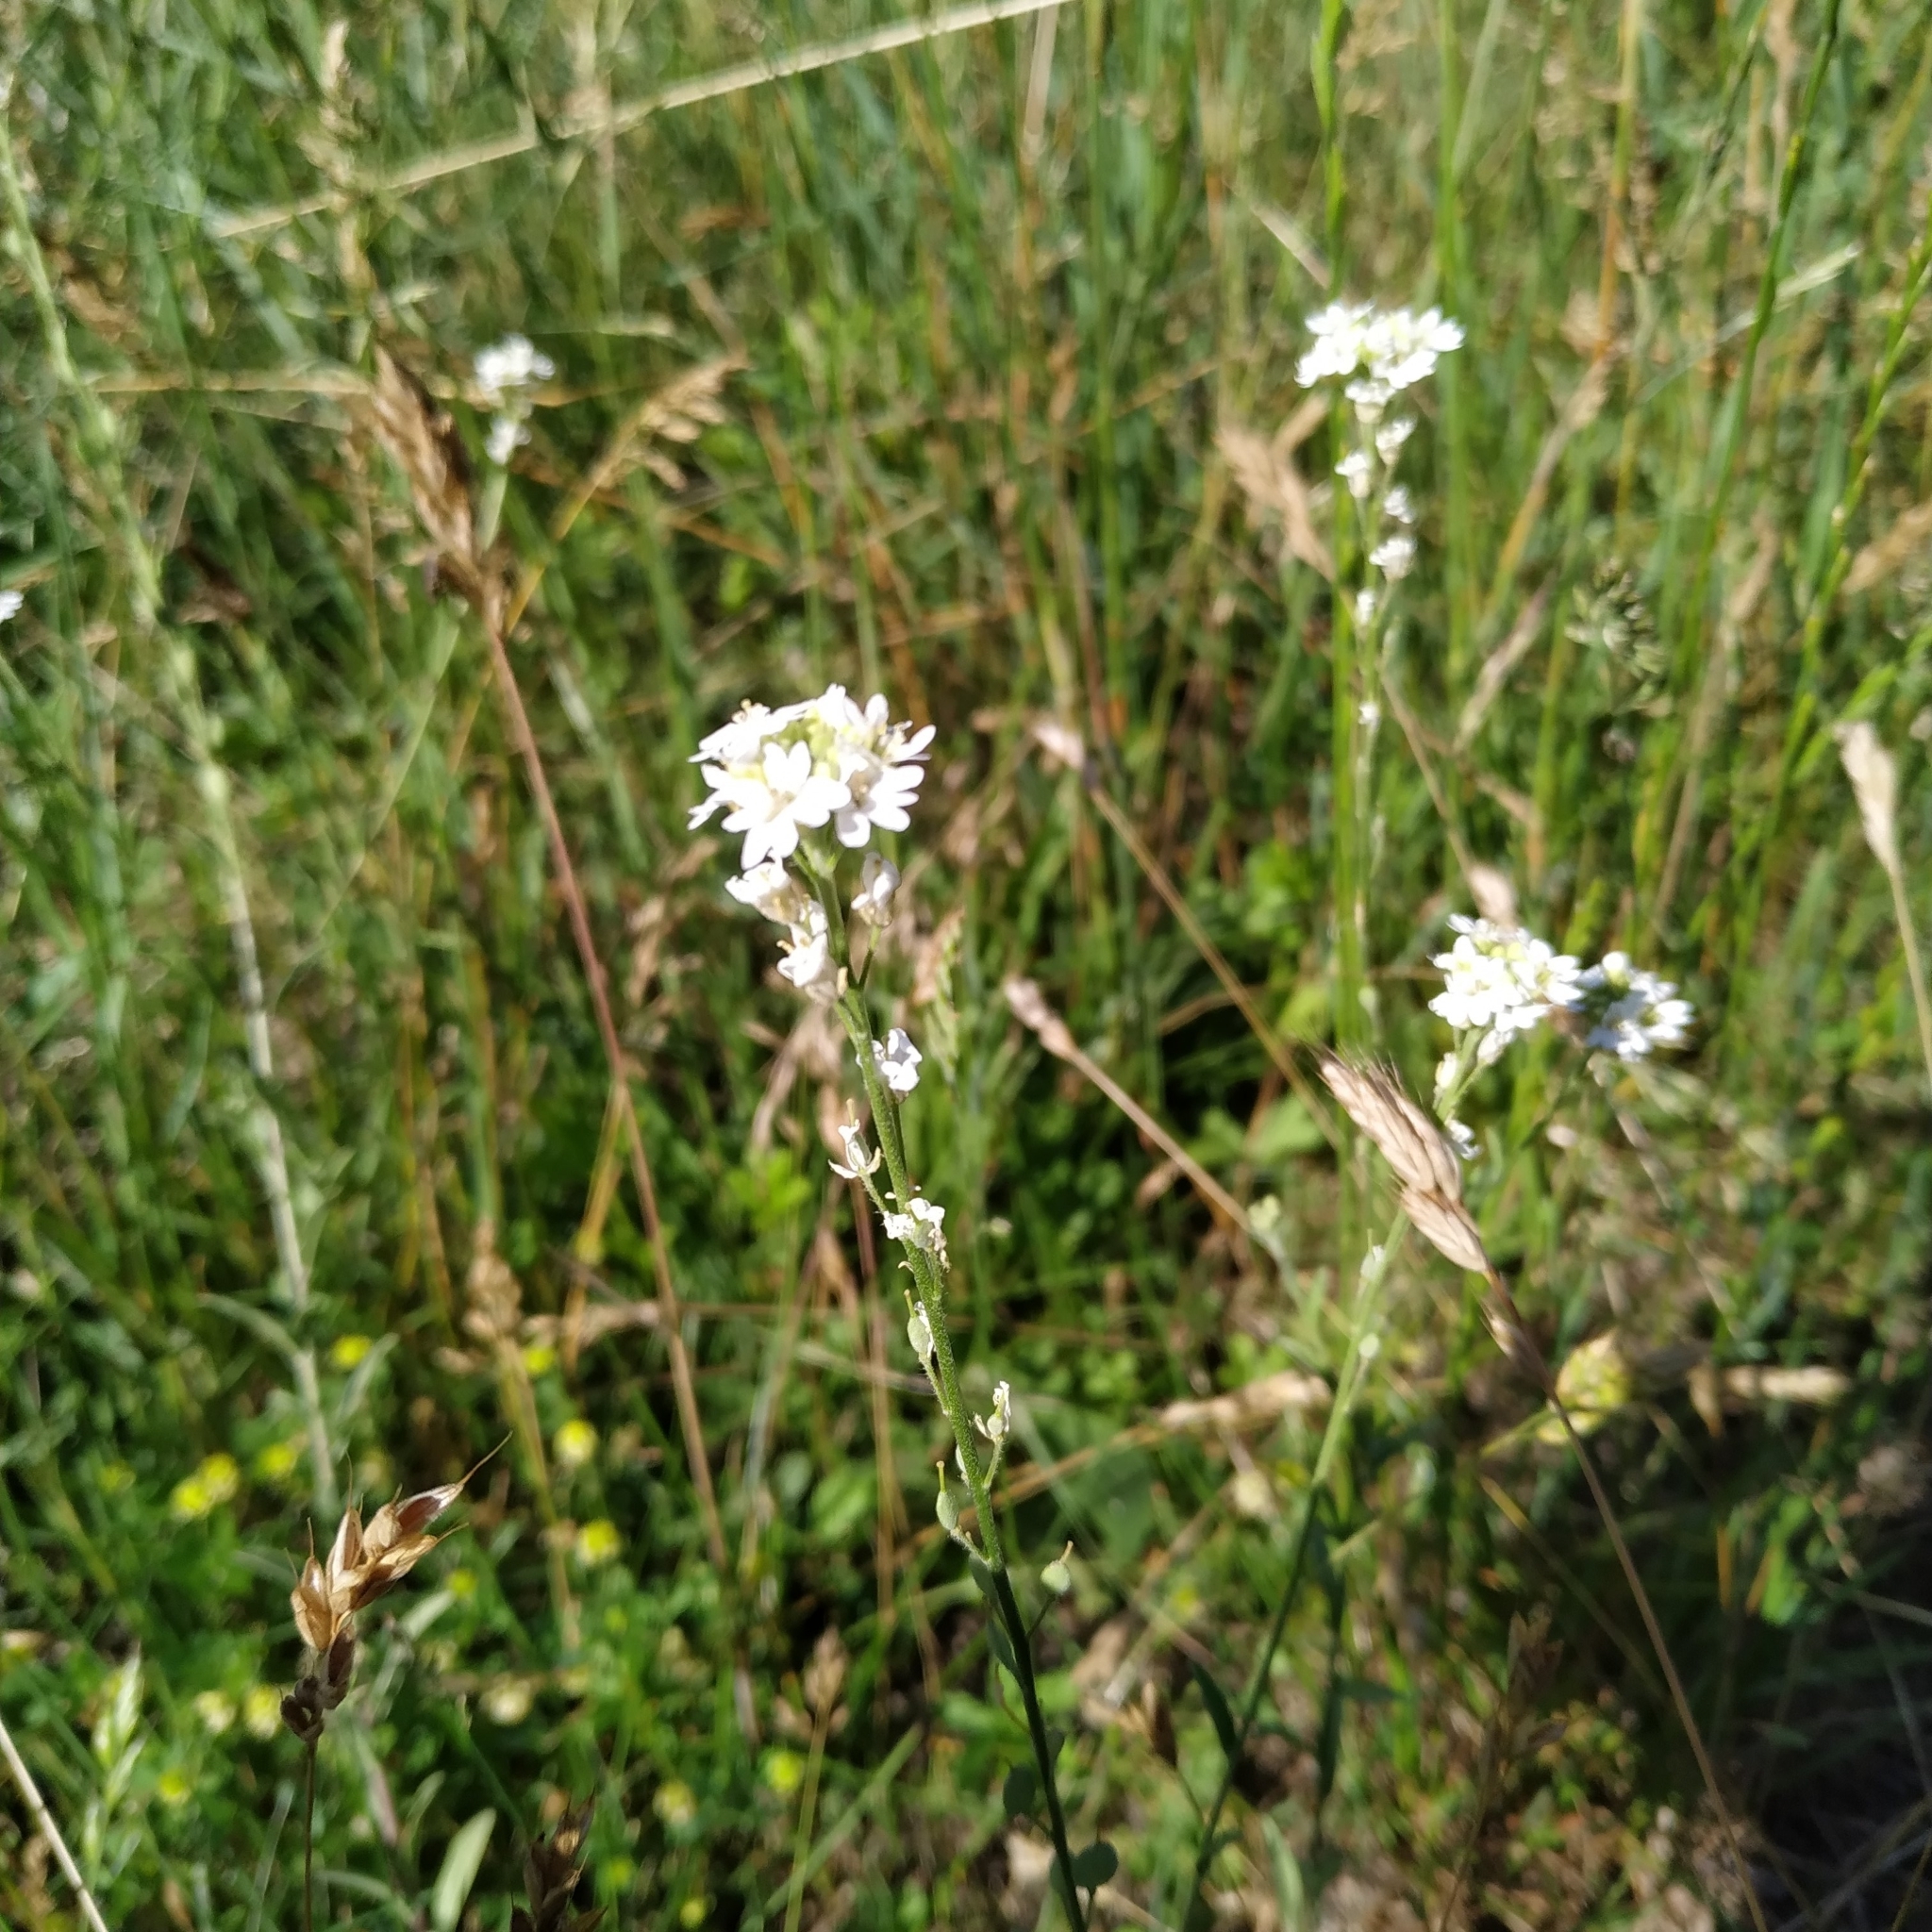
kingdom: Plantae
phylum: Tracheophyta
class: Magnoliopsida
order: Brassicales
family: Brassicaceae
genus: Berteroa
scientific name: Berteroa incana
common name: Hoary alison
